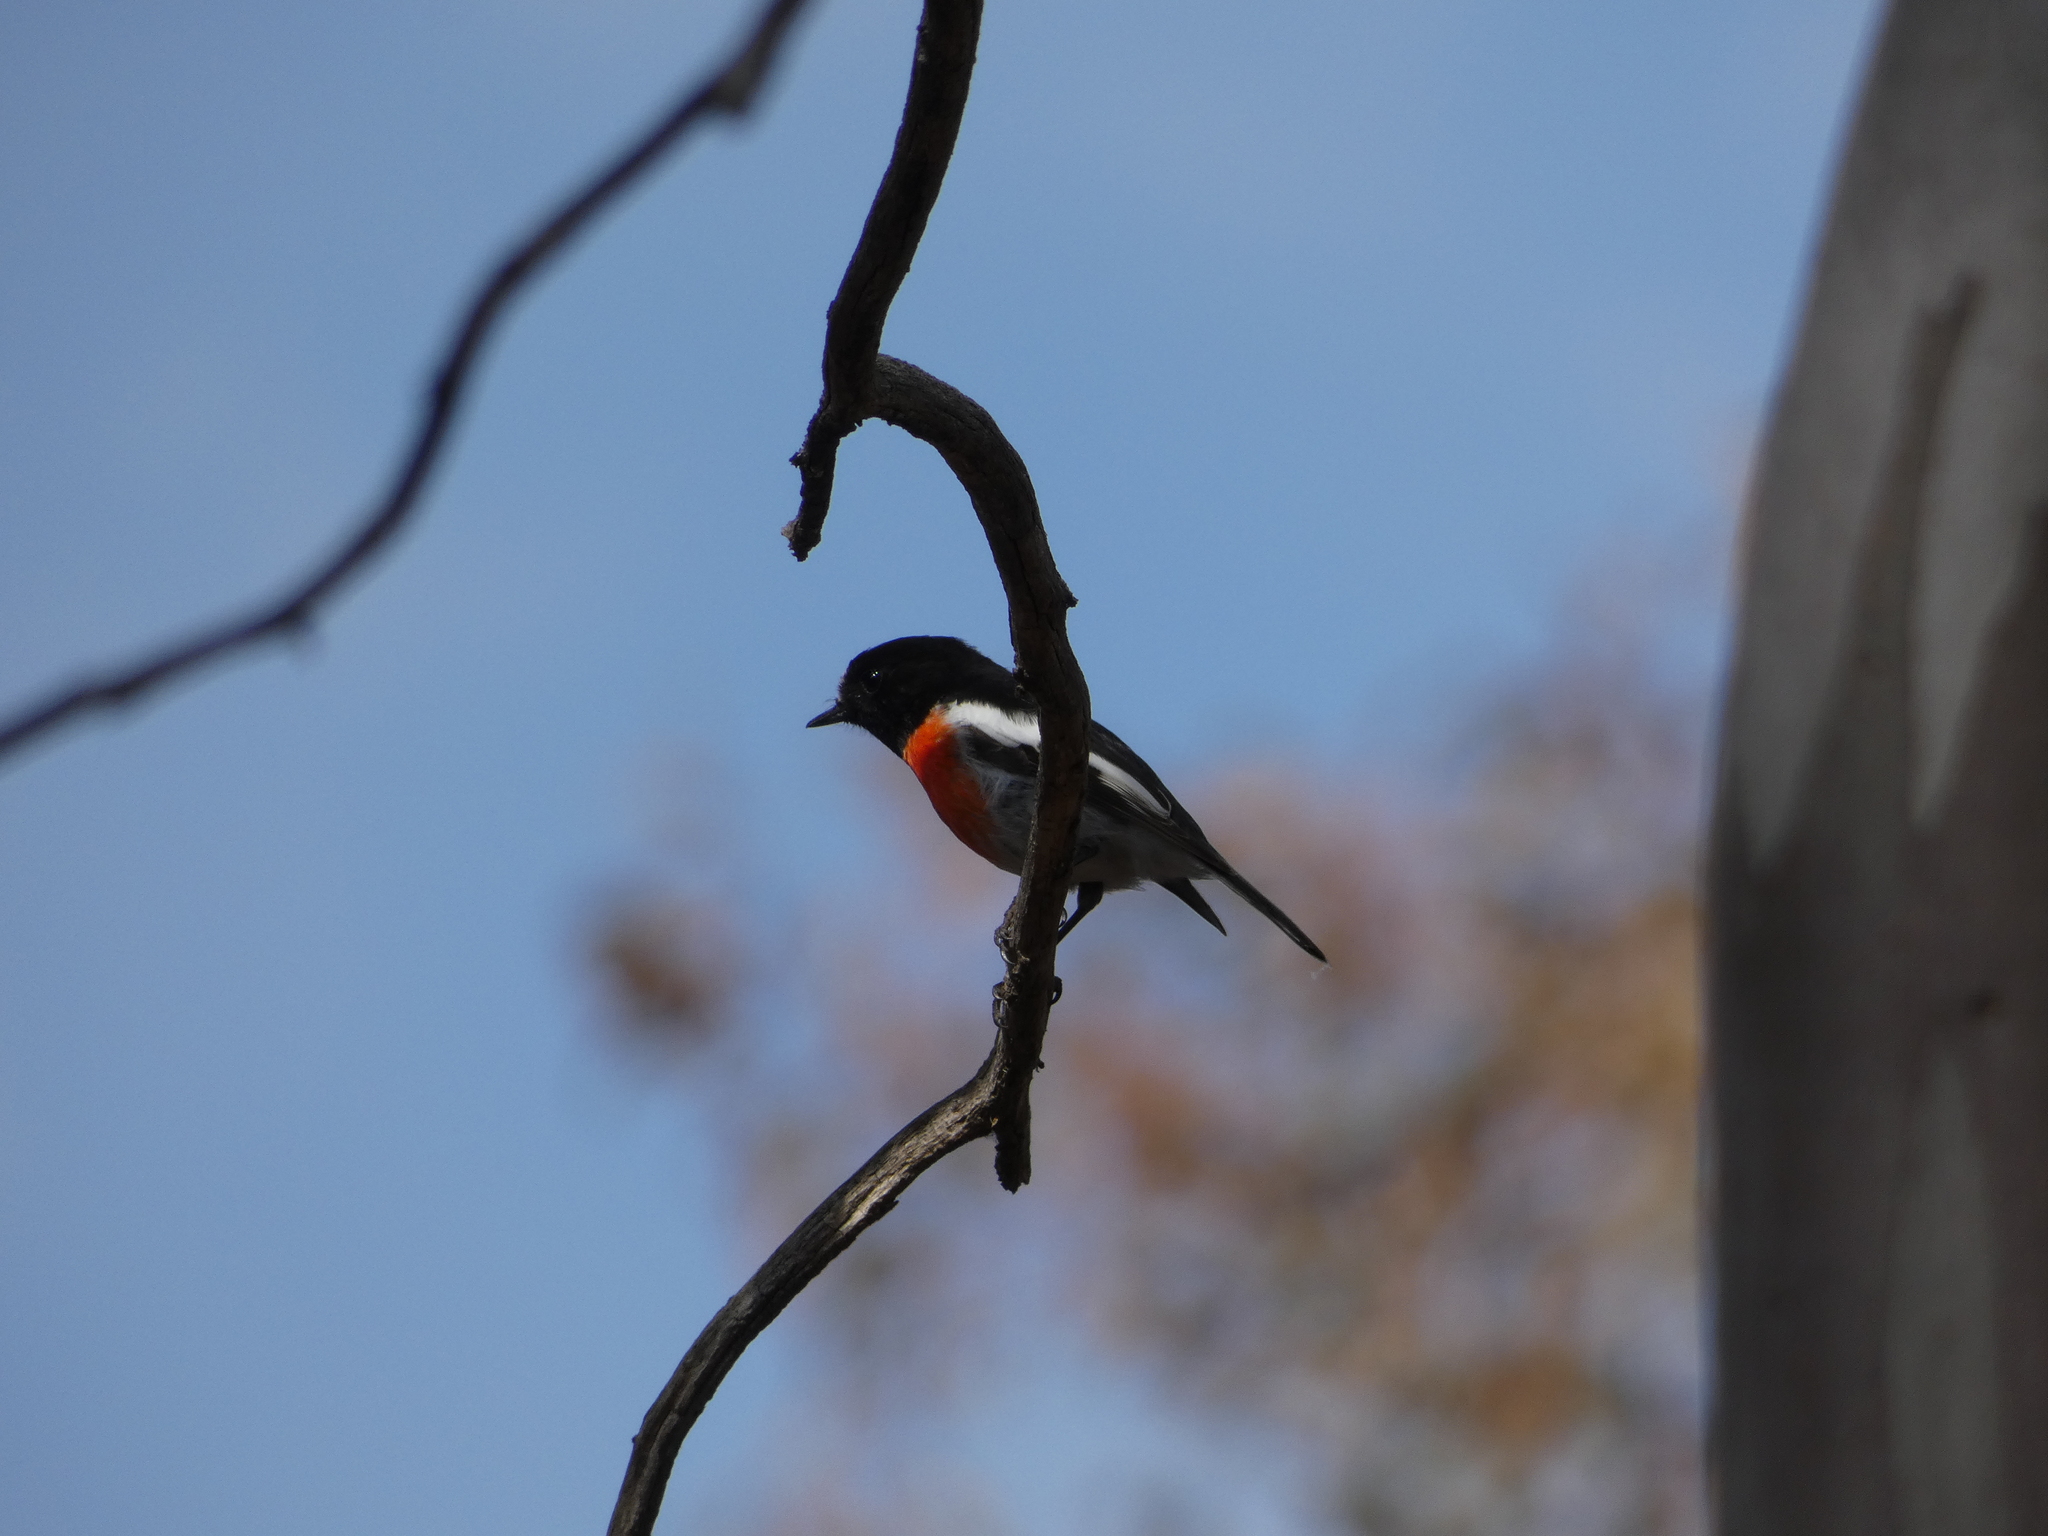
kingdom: Animalia
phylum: Chordata
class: Aves
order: Passeriformes
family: Petroicidae
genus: Petroica
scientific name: Petroica boodang
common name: Scarlet robin
